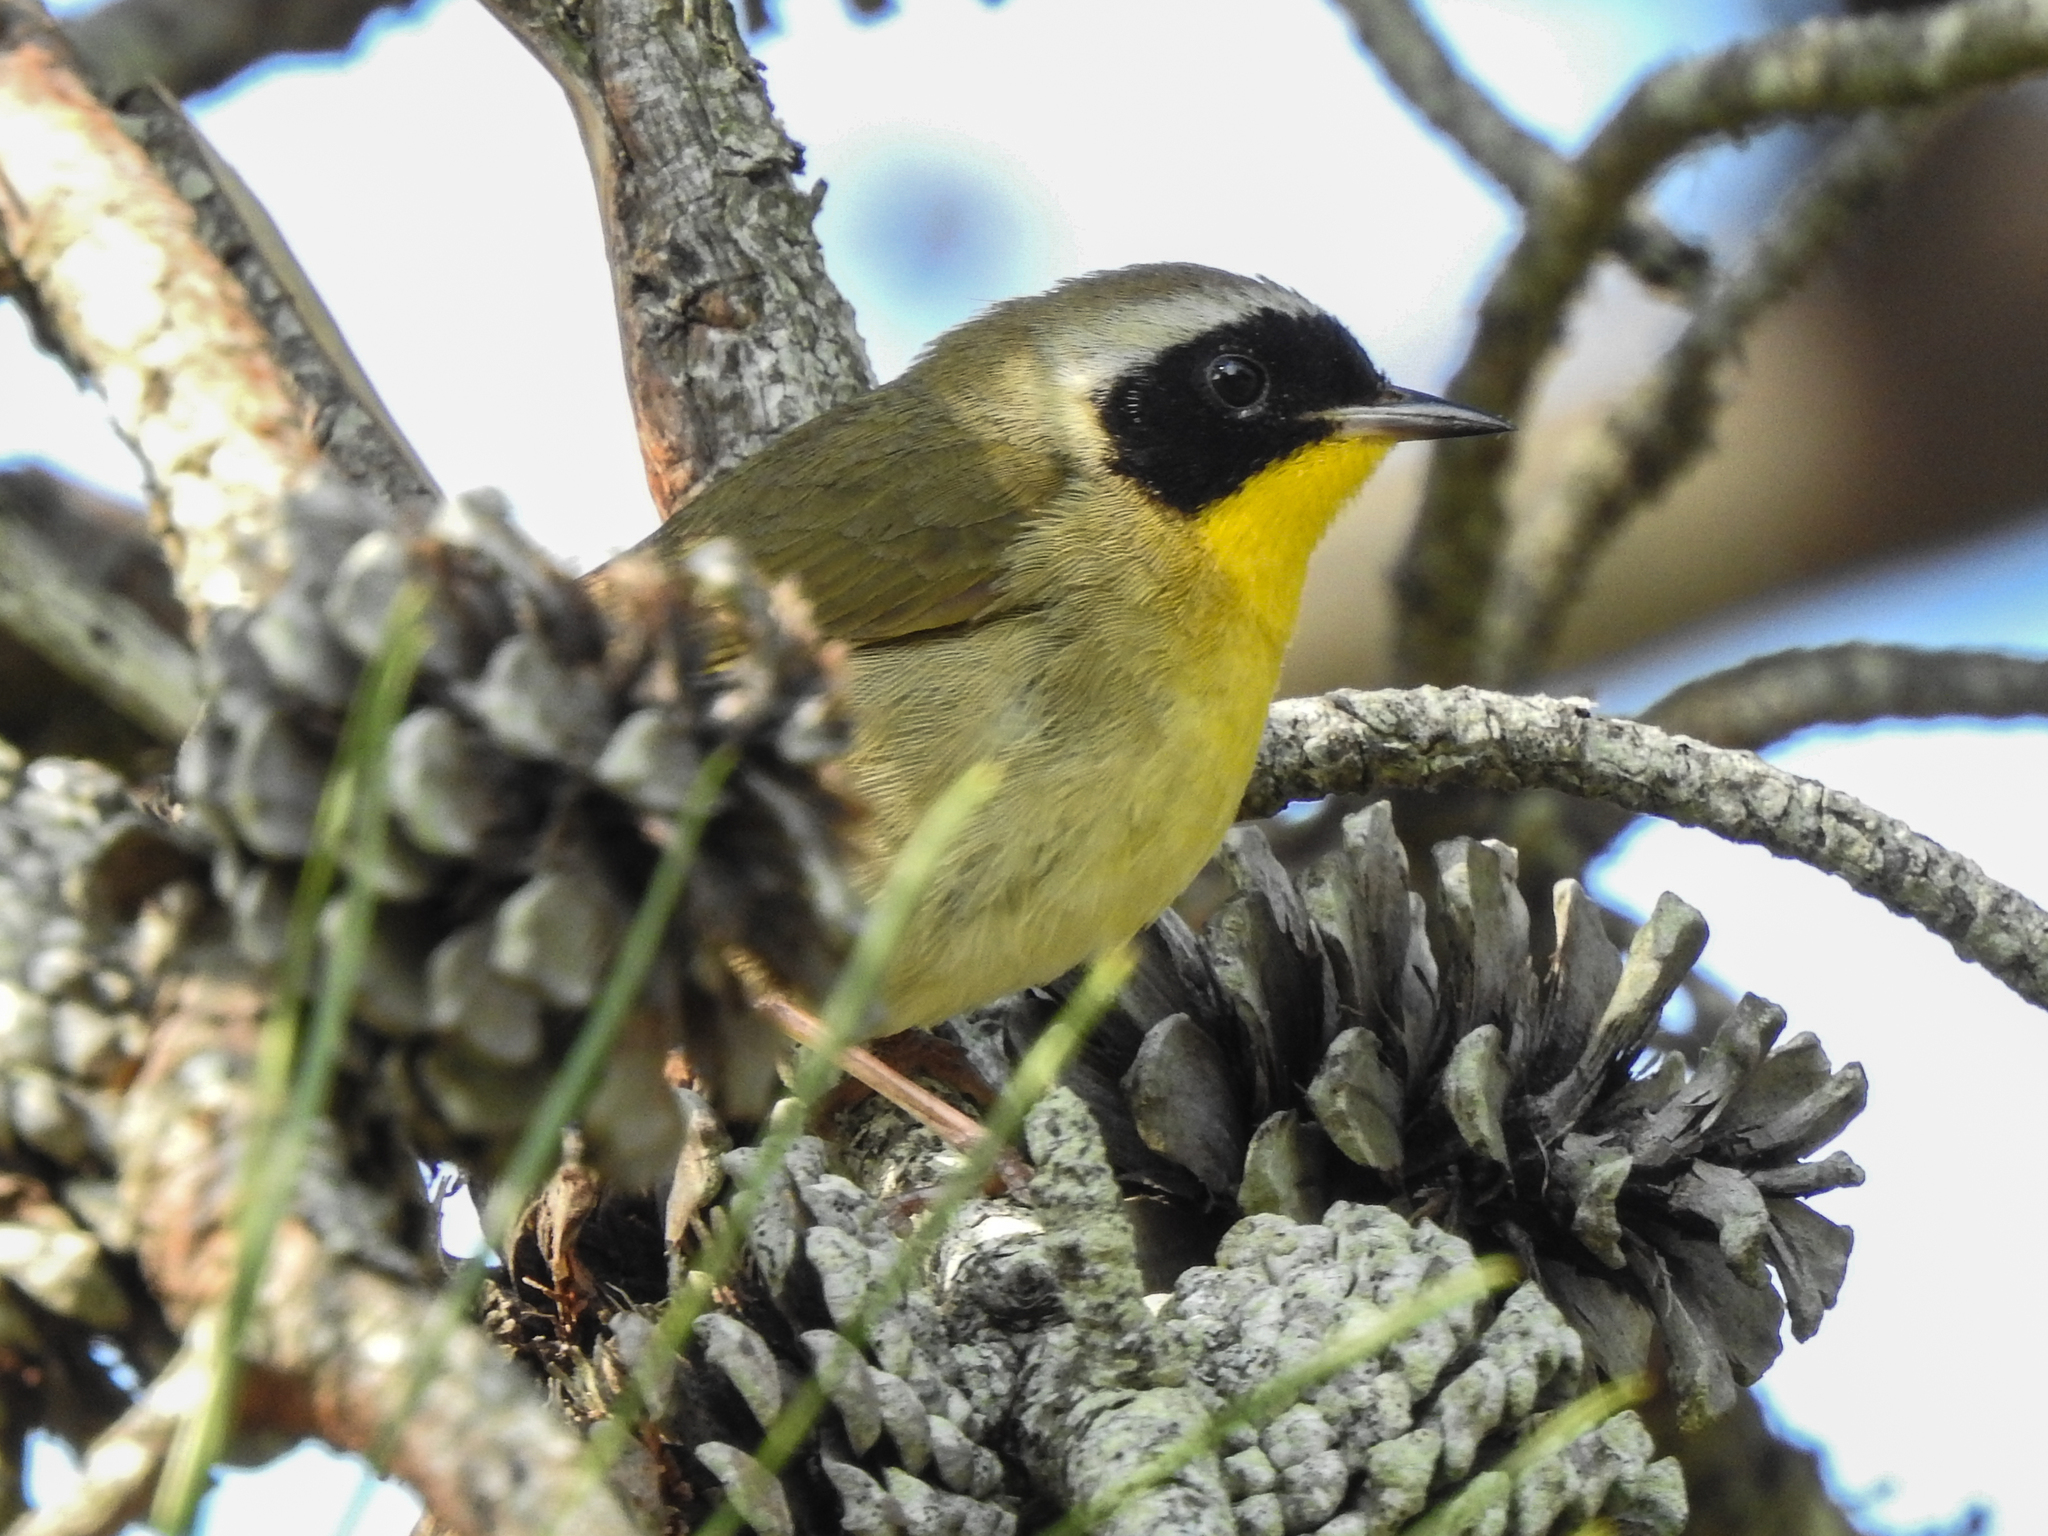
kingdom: Animalia
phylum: Chordata
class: Aves
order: Passeriformes
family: Parulidae
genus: Geothlypis
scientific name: Geothlypis trichas
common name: Common yellowthroat
